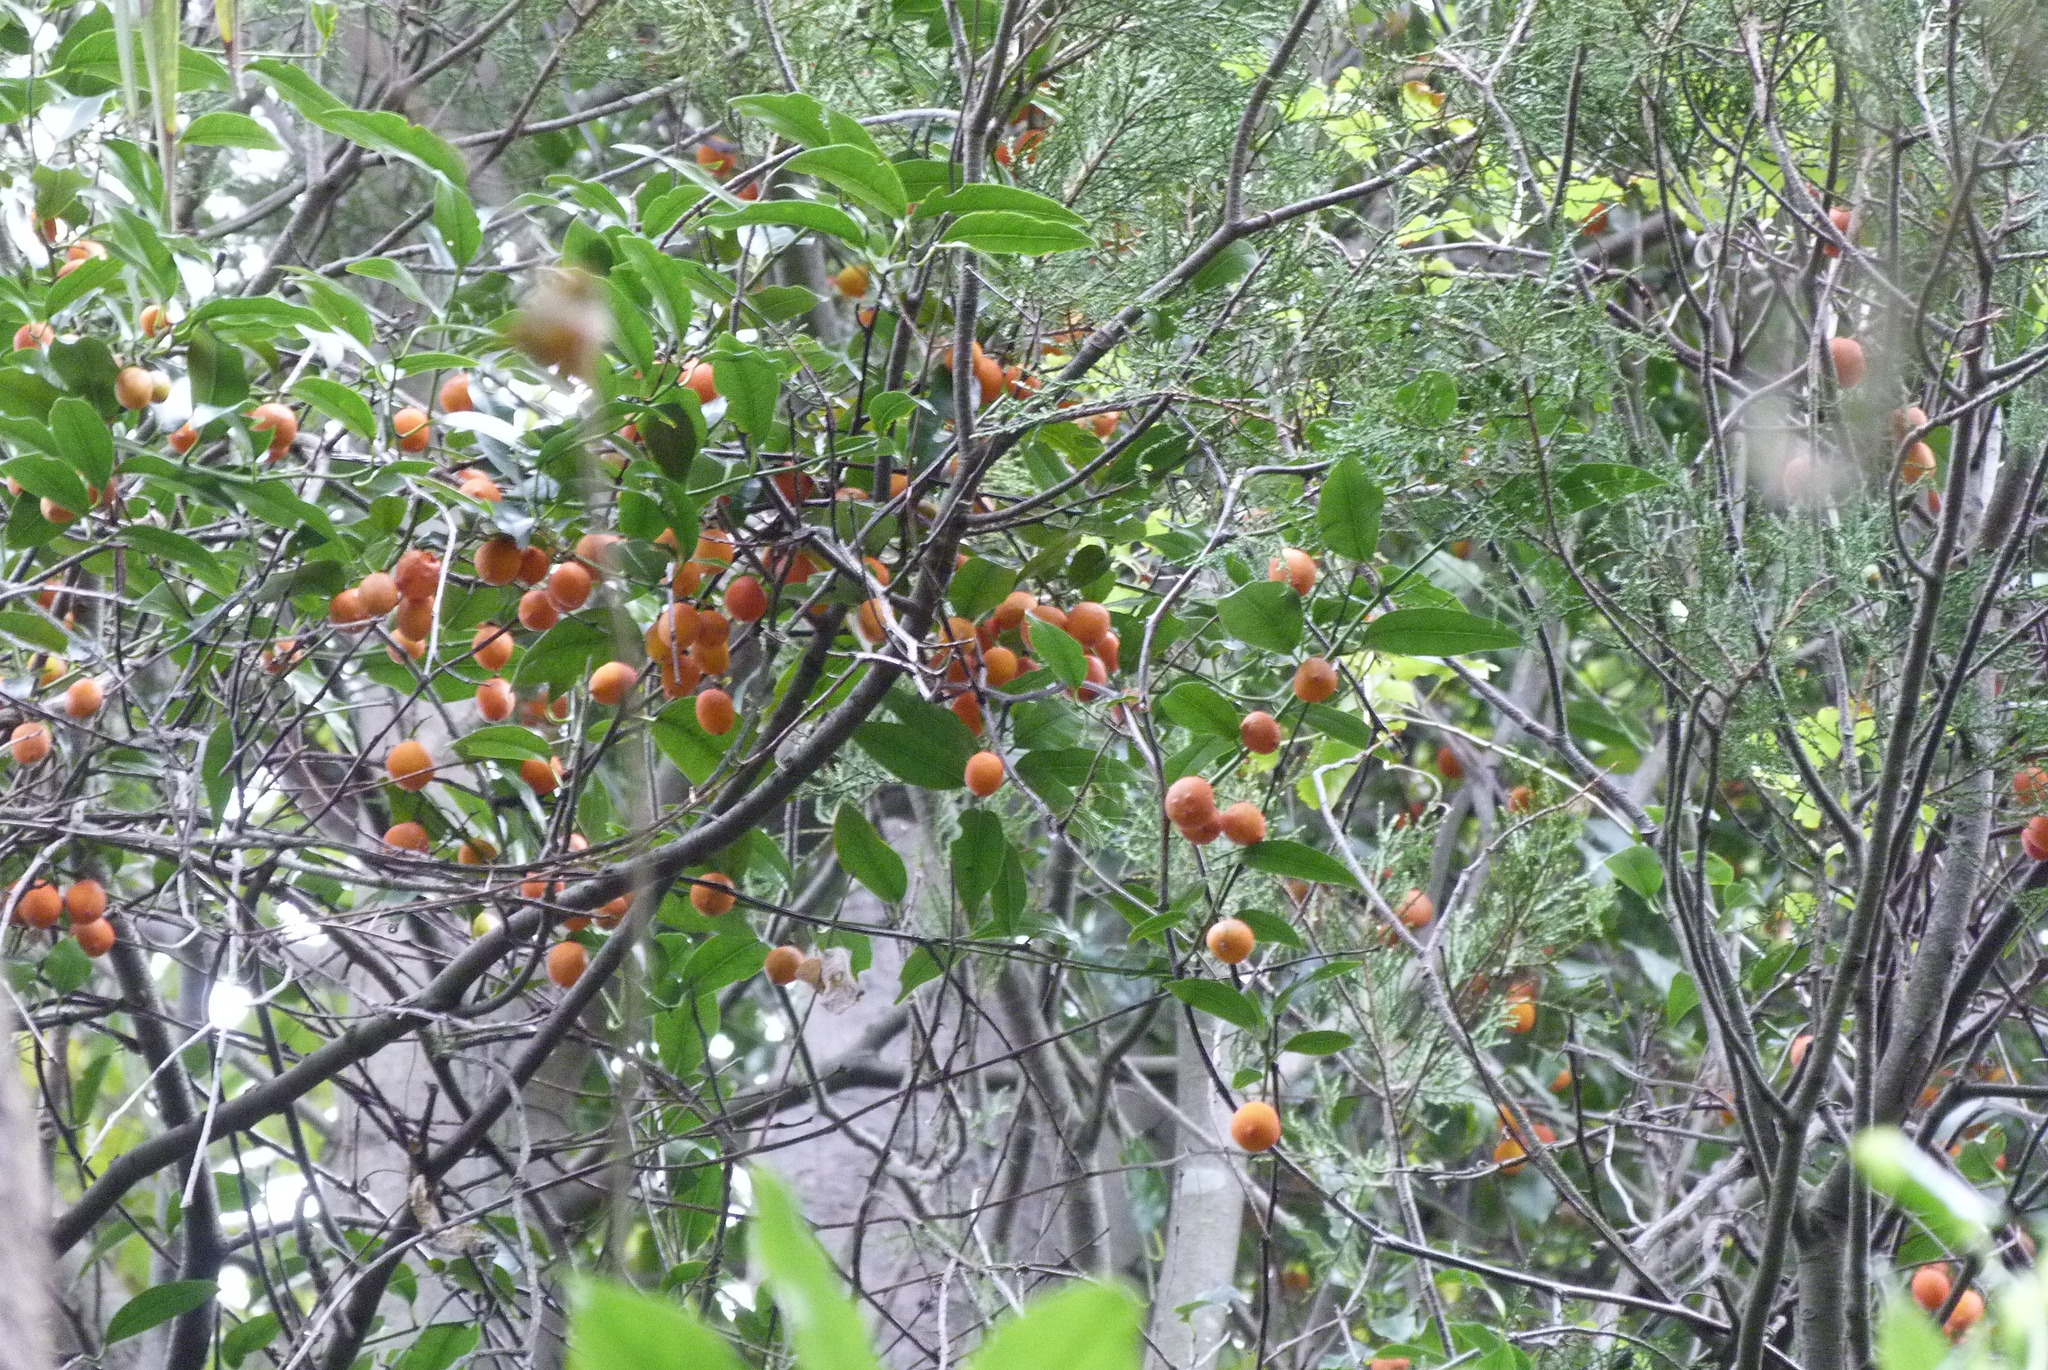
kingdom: Plantae
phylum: Tracheophyta
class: Magnoliopsida
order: Malpighiales
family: Passifloraceae
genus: Passiflora
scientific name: Passiflora tetrandra
